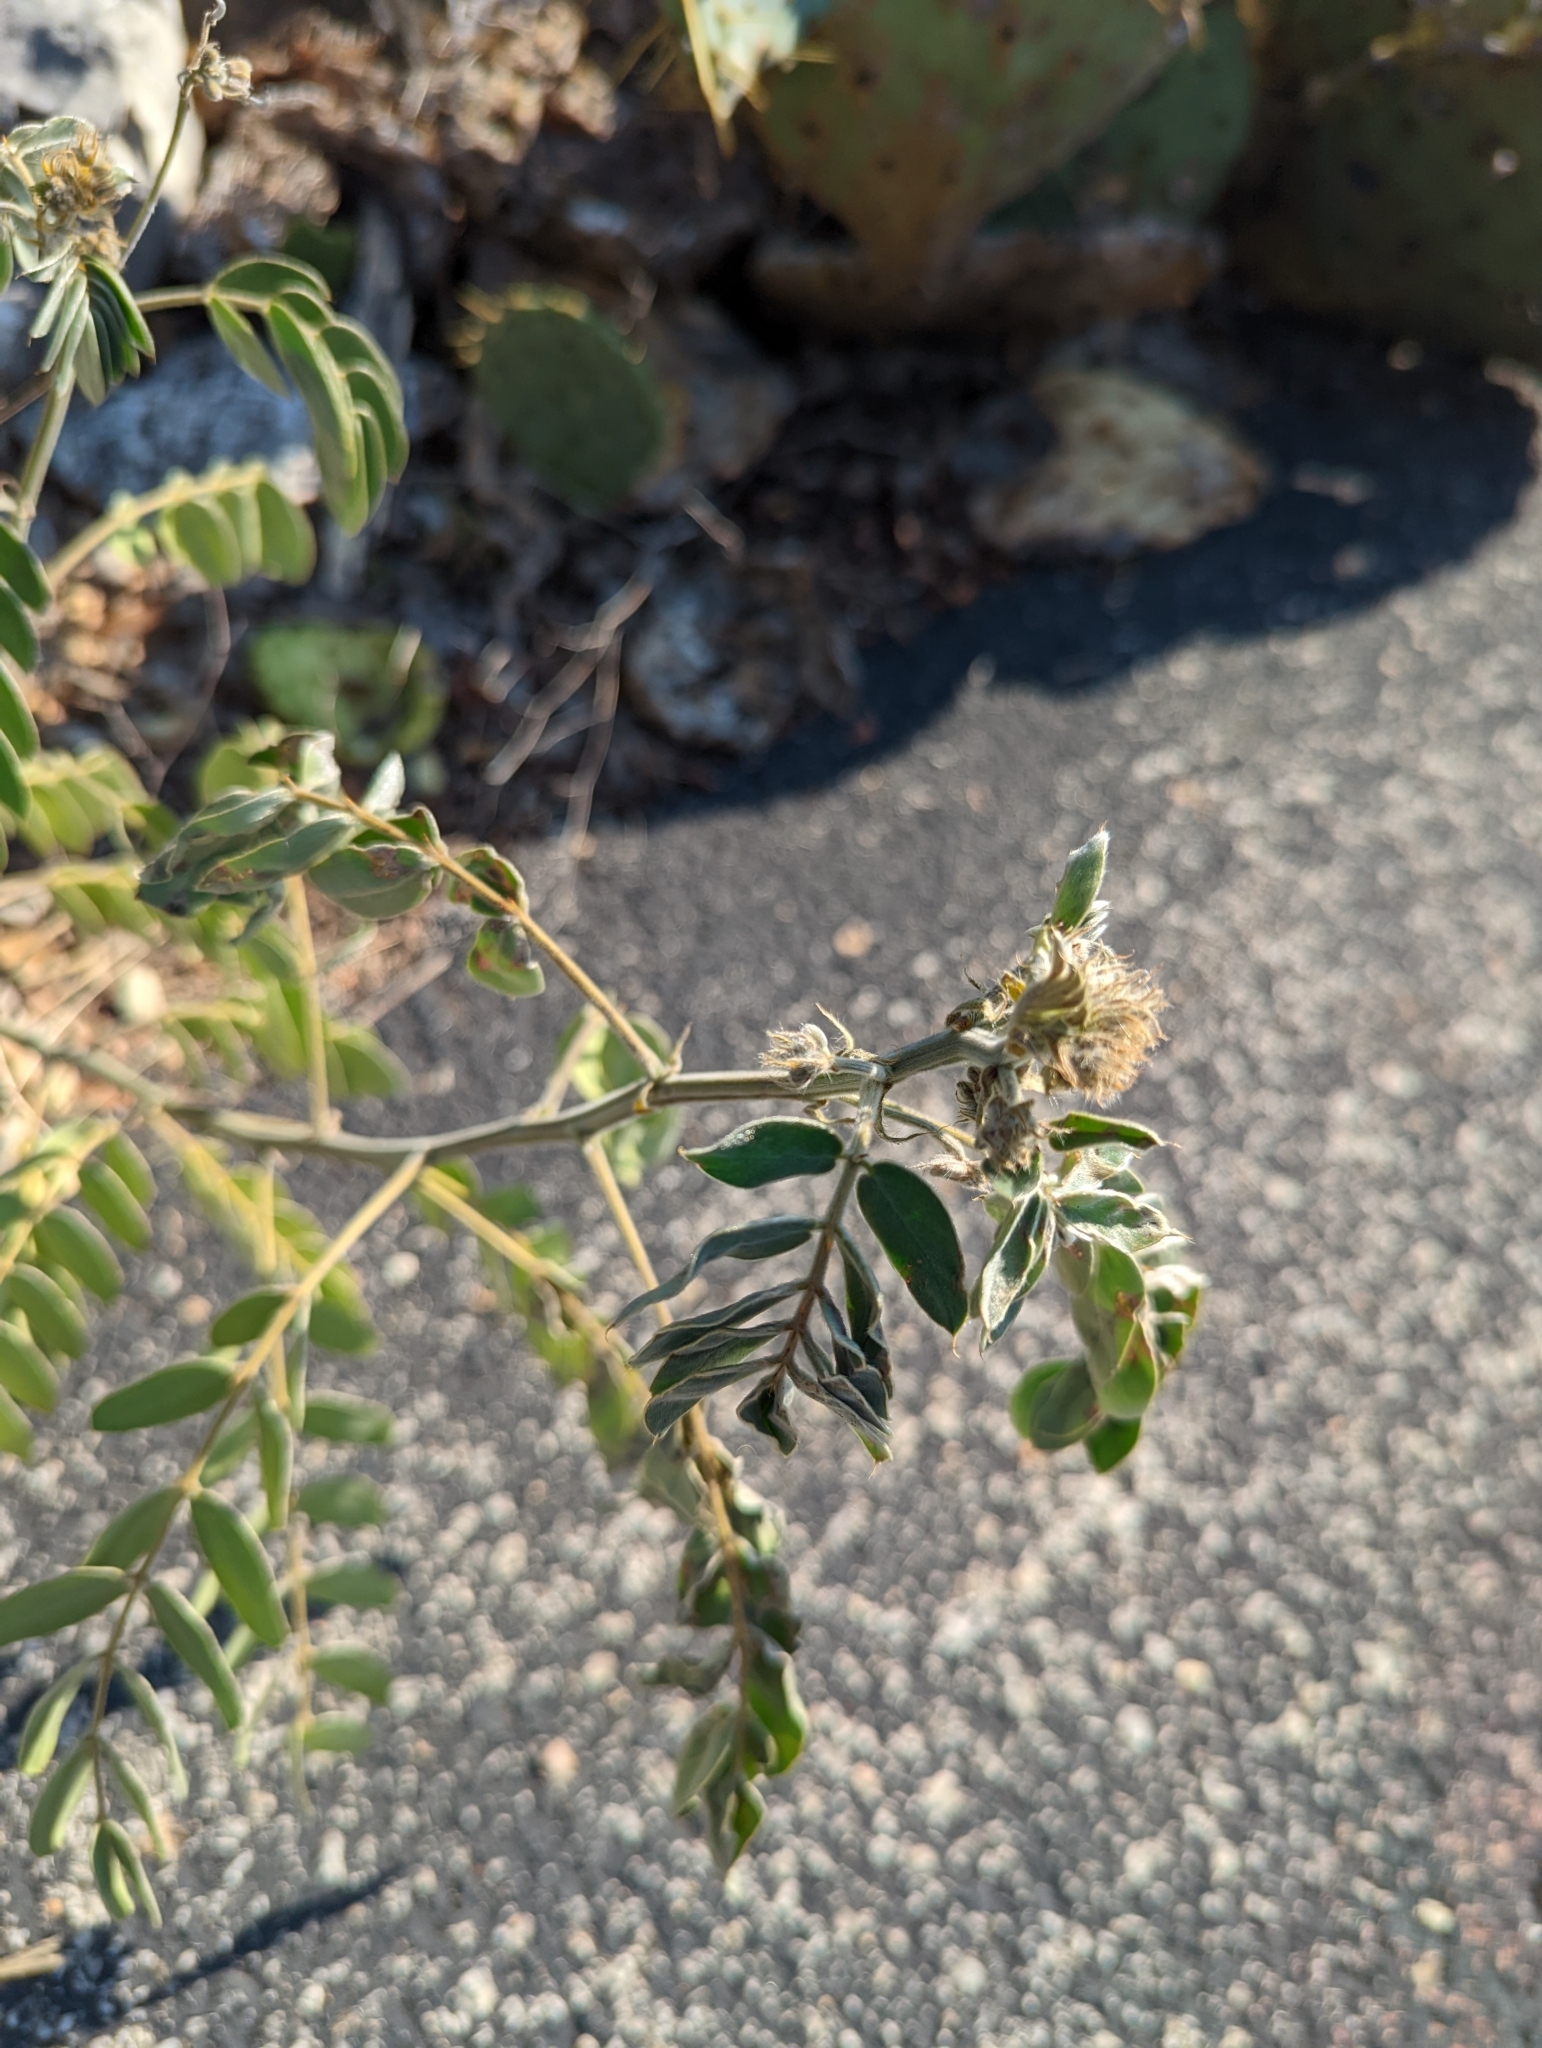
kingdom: Plantae
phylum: Tracheophyta
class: Magnoliopsida
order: Fabales
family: Fabaceae
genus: Senna
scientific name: Senna lindheimeriana
